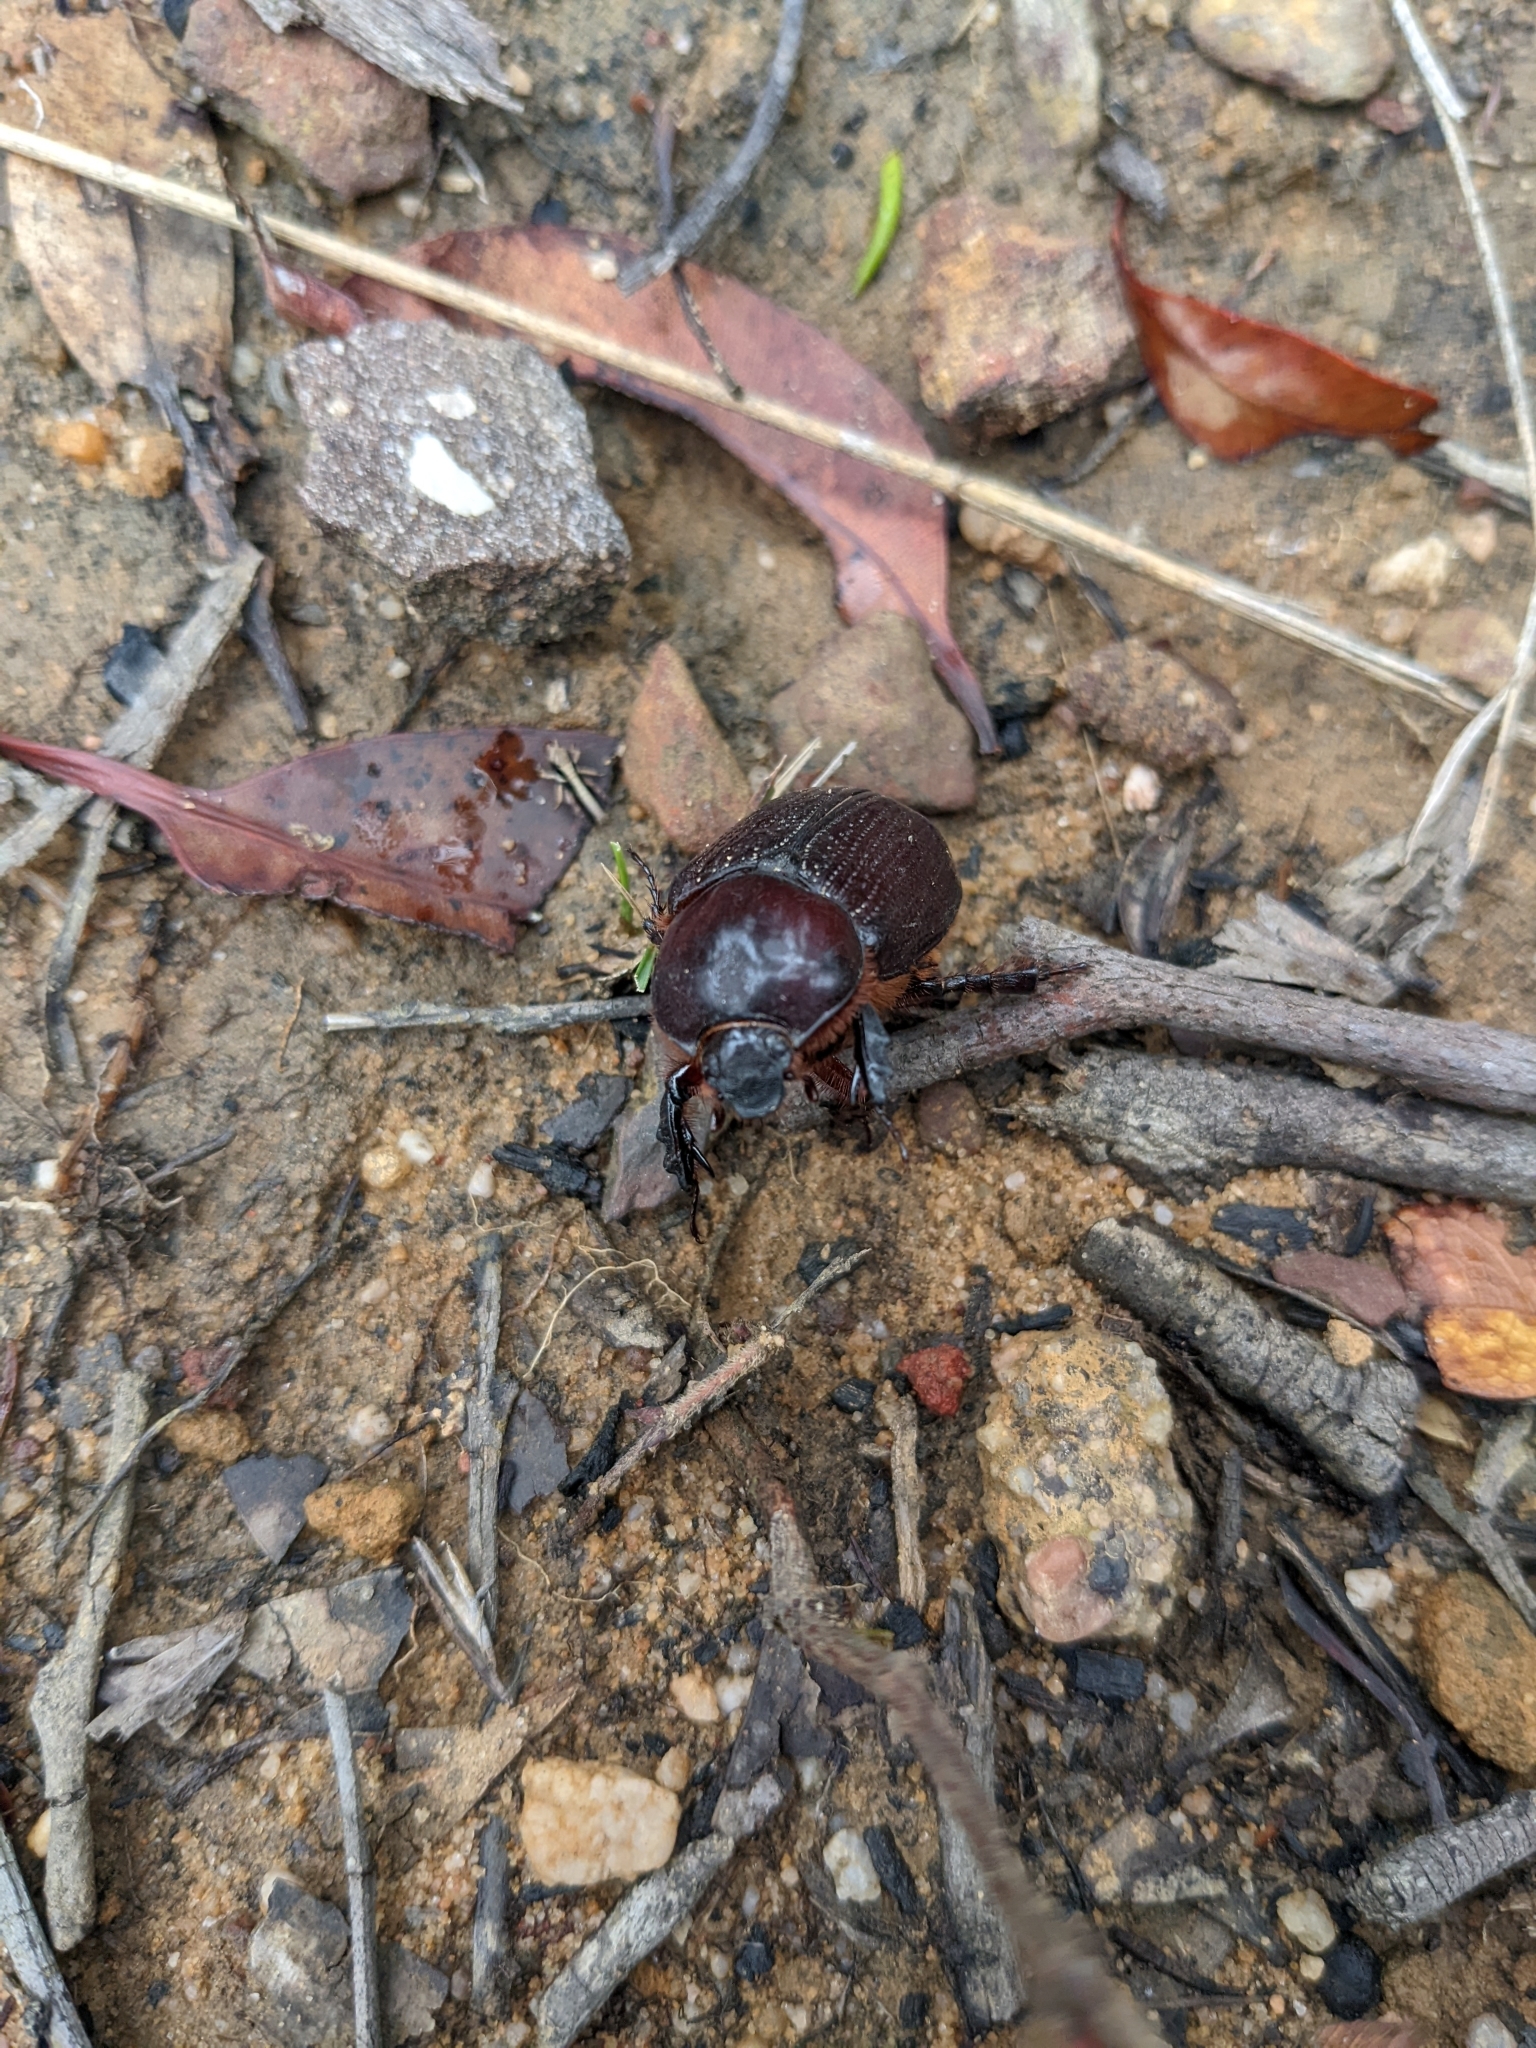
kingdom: Animalia
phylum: Arthropoda
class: Insecta
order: Coleoptera
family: Scarabaeidae
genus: Neodasygnathus
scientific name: Neodasygnathus juba
